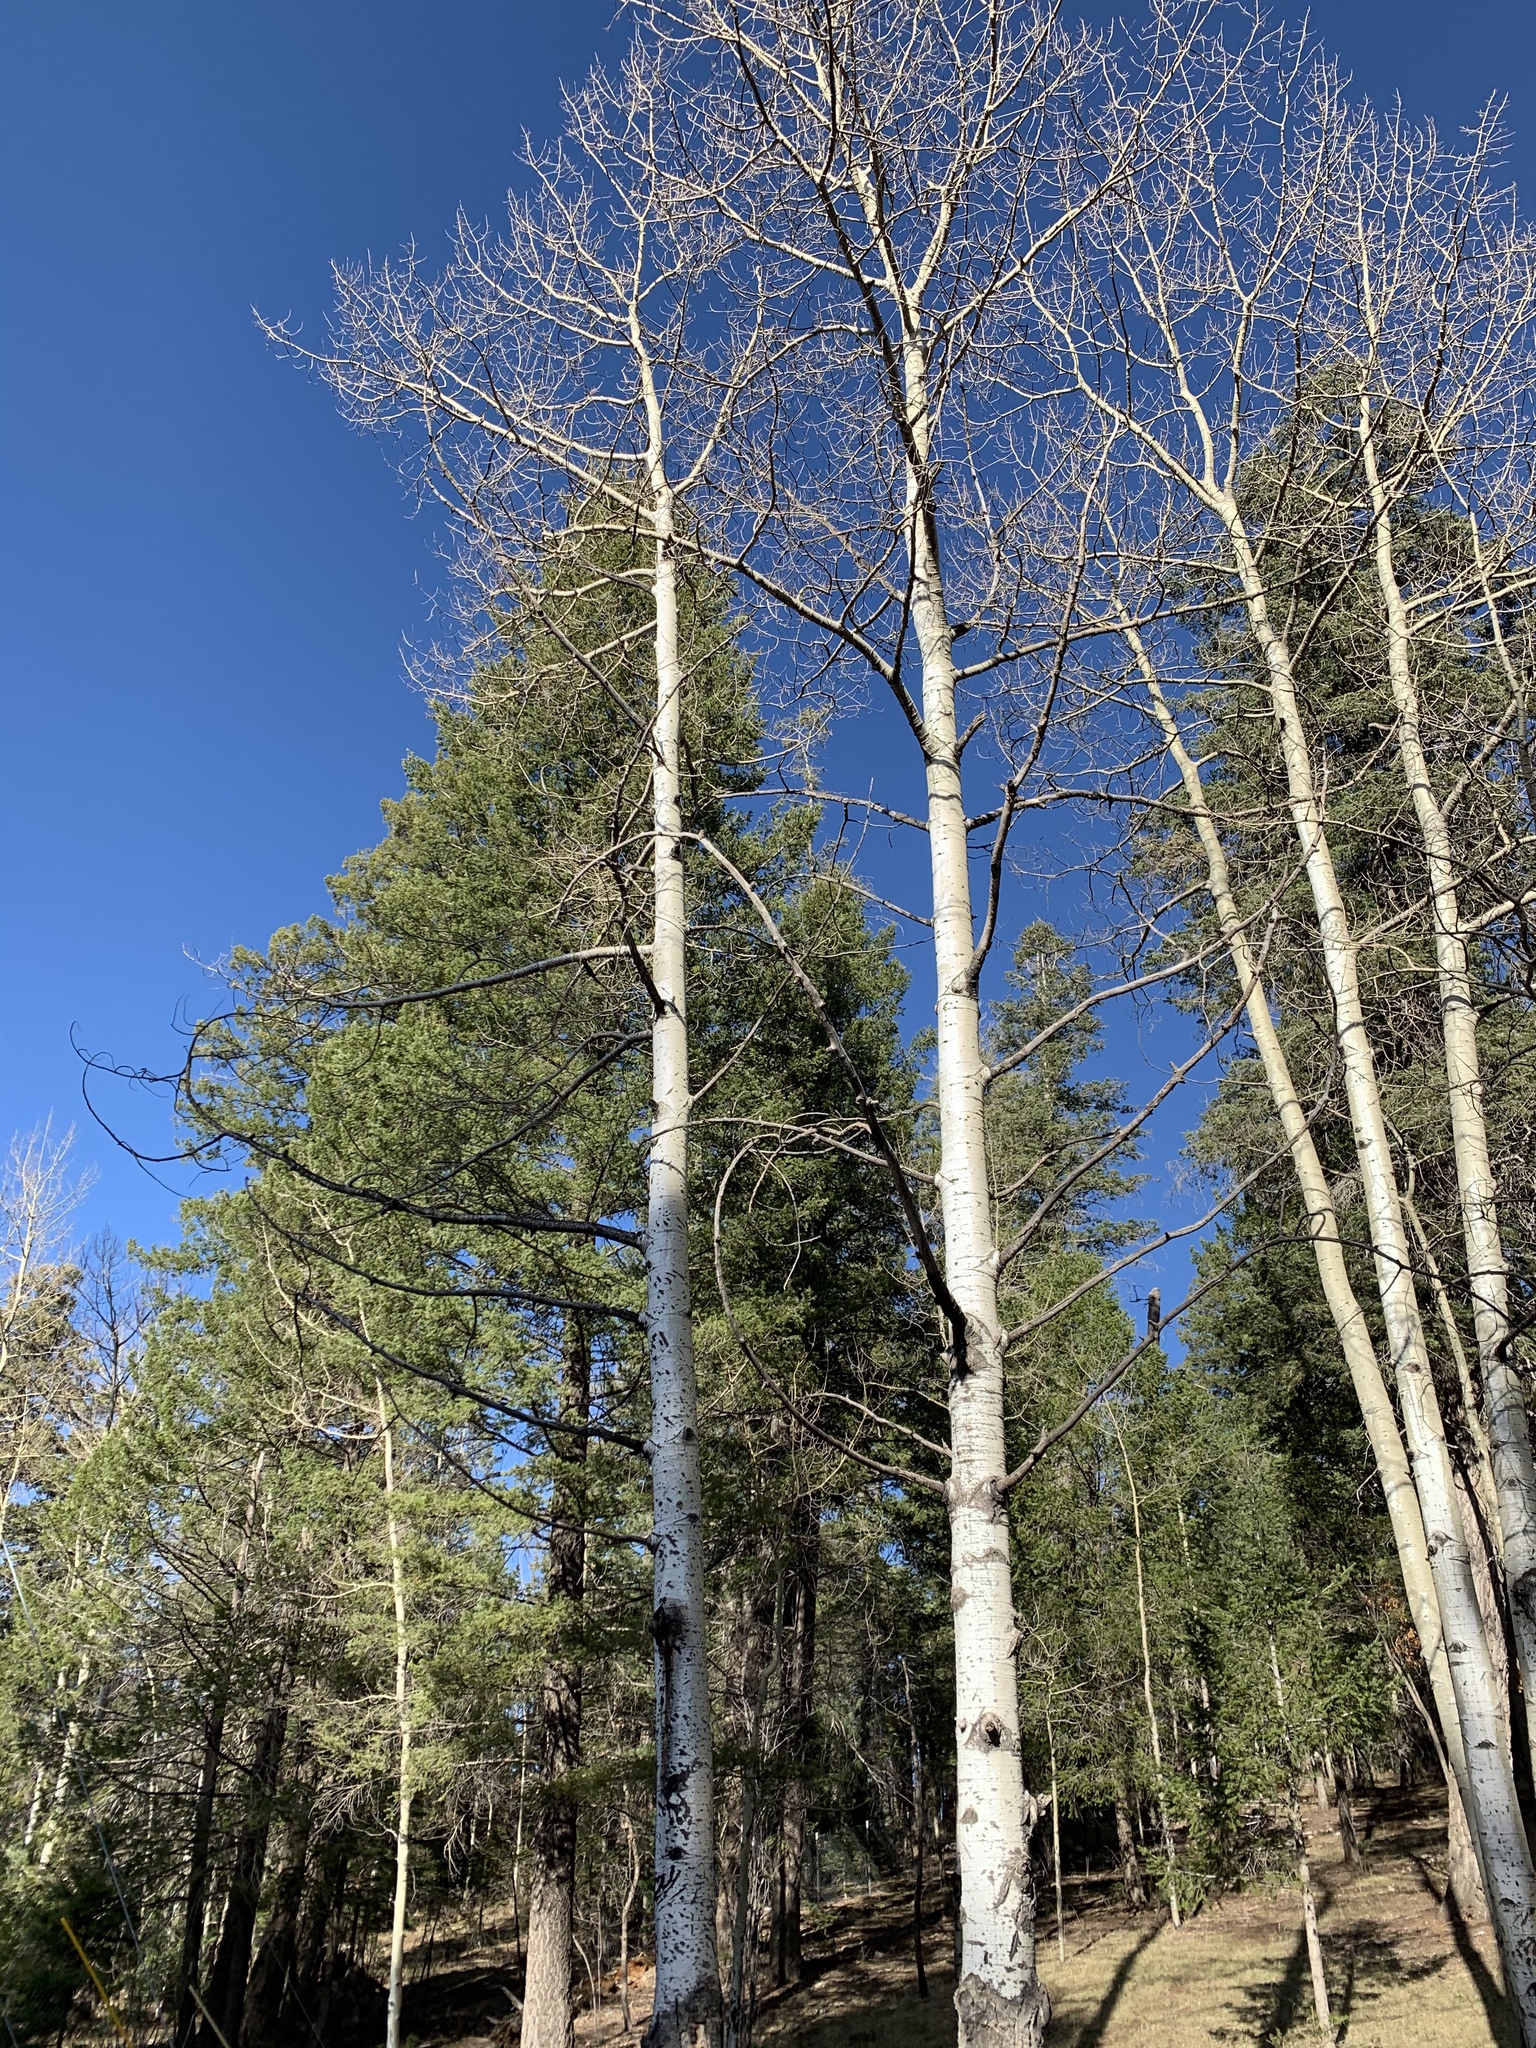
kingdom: Plantae
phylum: Tracheophyta
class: Magnoliopsida
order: Malpighiales
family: Salicaceae
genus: Populus
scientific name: Populus tremuloides
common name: Quaking aspen
